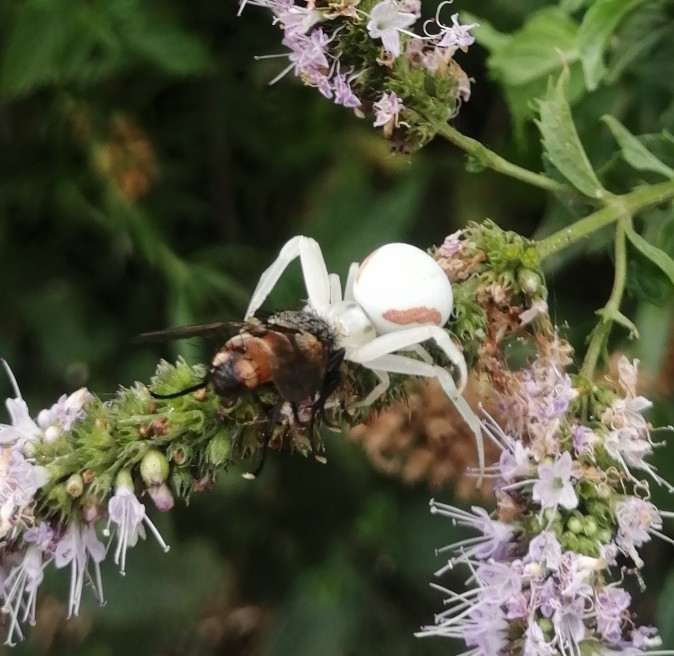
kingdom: Animalia
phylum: Arthropoda
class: Arachnida
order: Araneae
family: Thomisidae
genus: Misumena
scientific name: Misumena vatia
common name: Goldenrod crab spider
